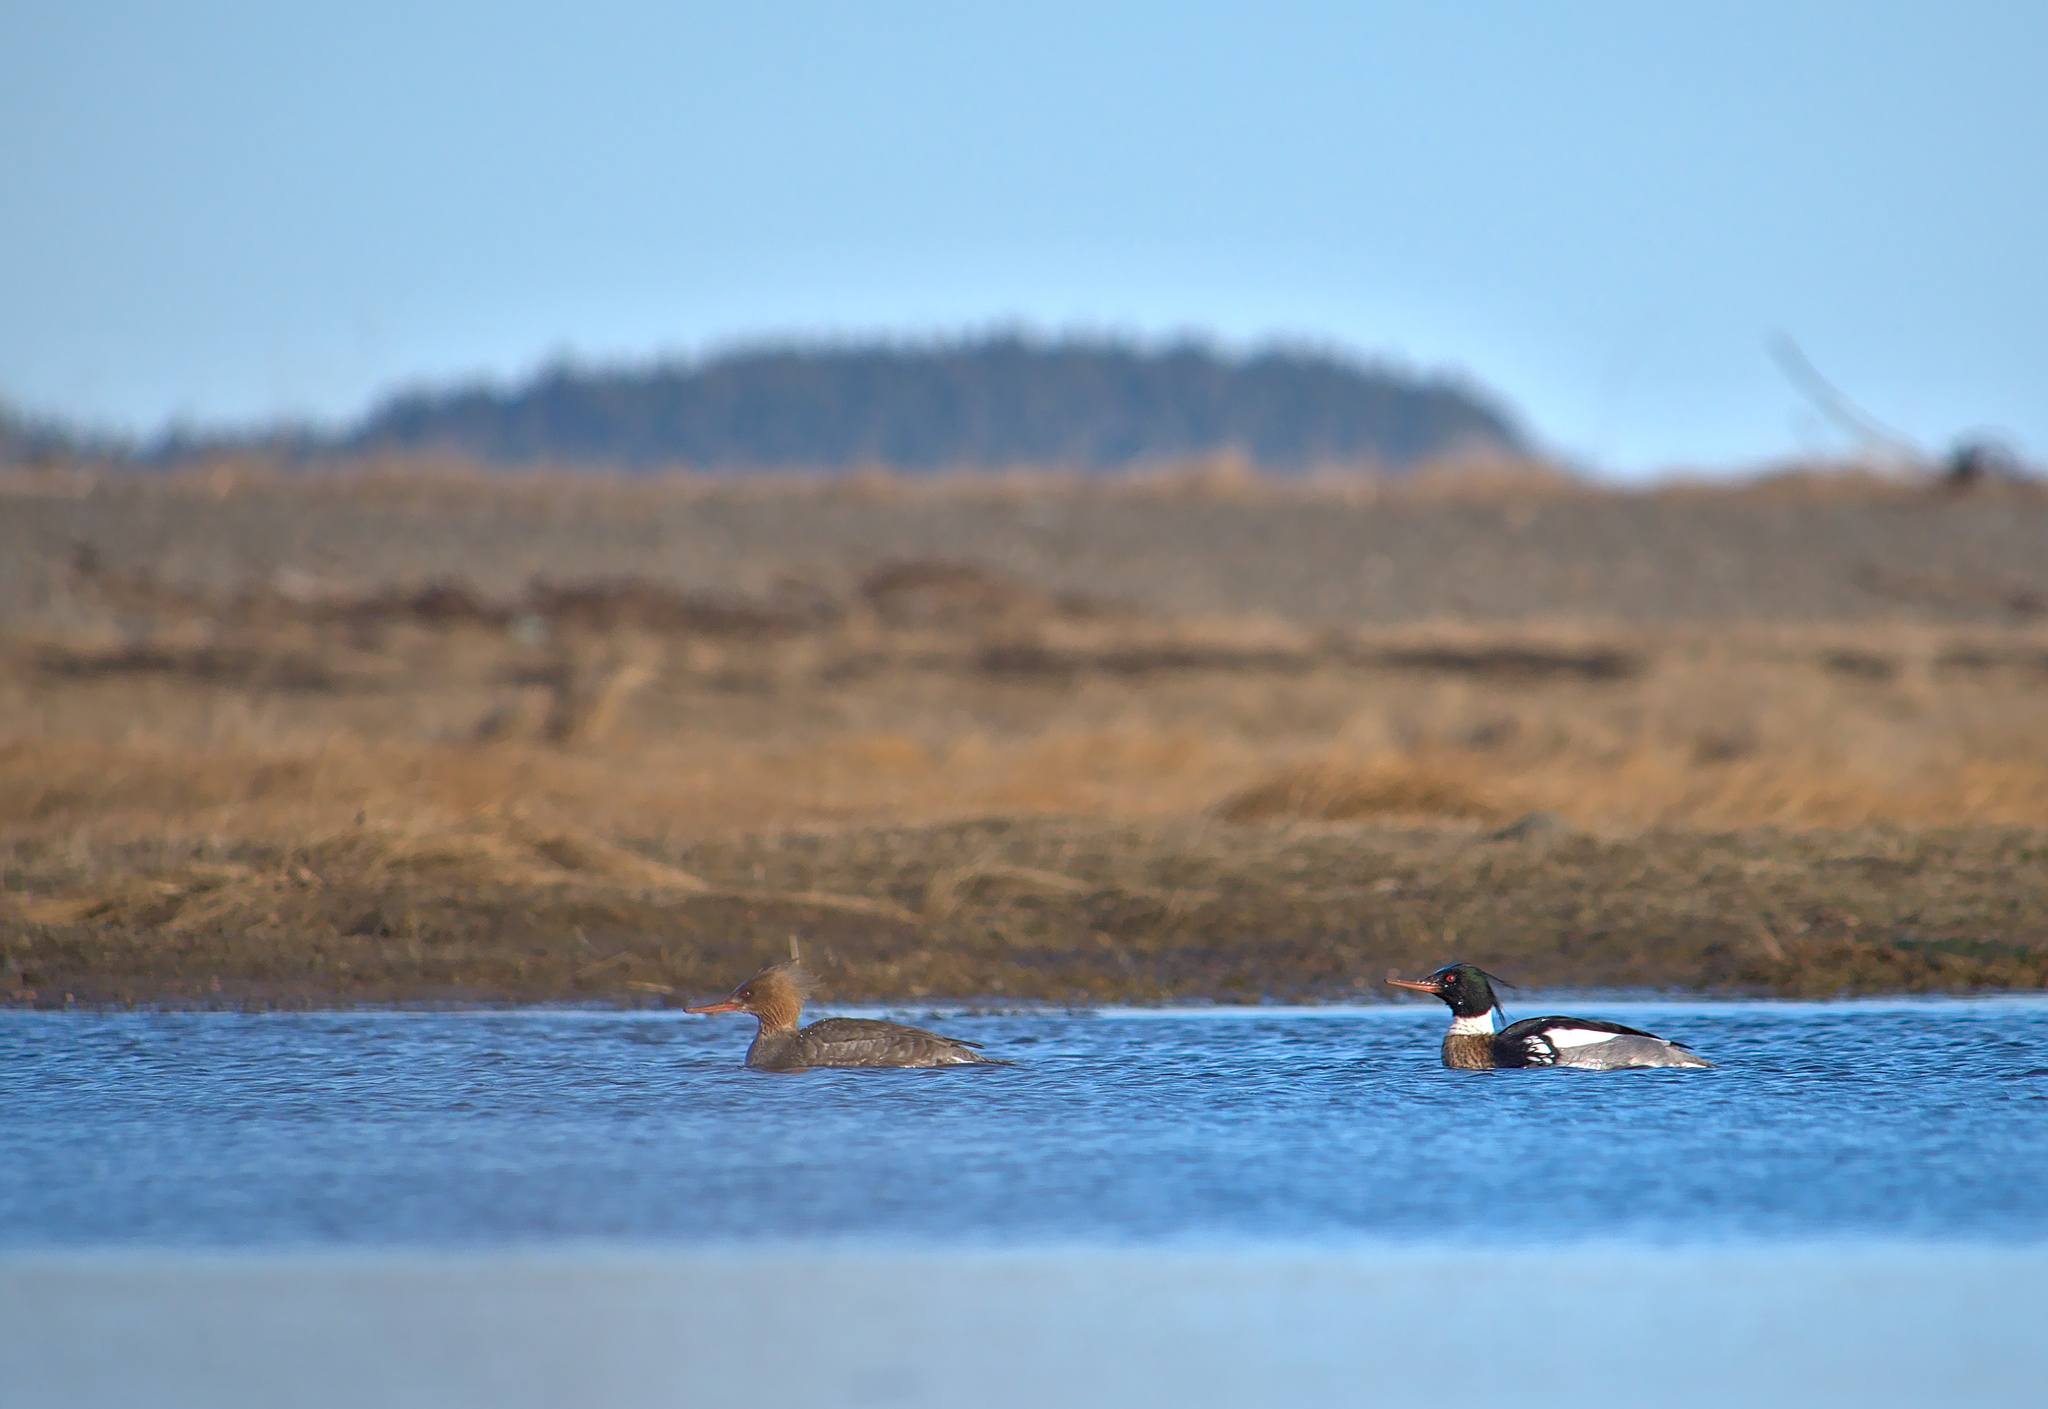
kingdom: Animalia
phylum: Chordata
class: Aves
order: Anseriformes
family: Anatidae
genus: Mergus
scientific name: Mergus serrator
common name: Red-breasted merganser
